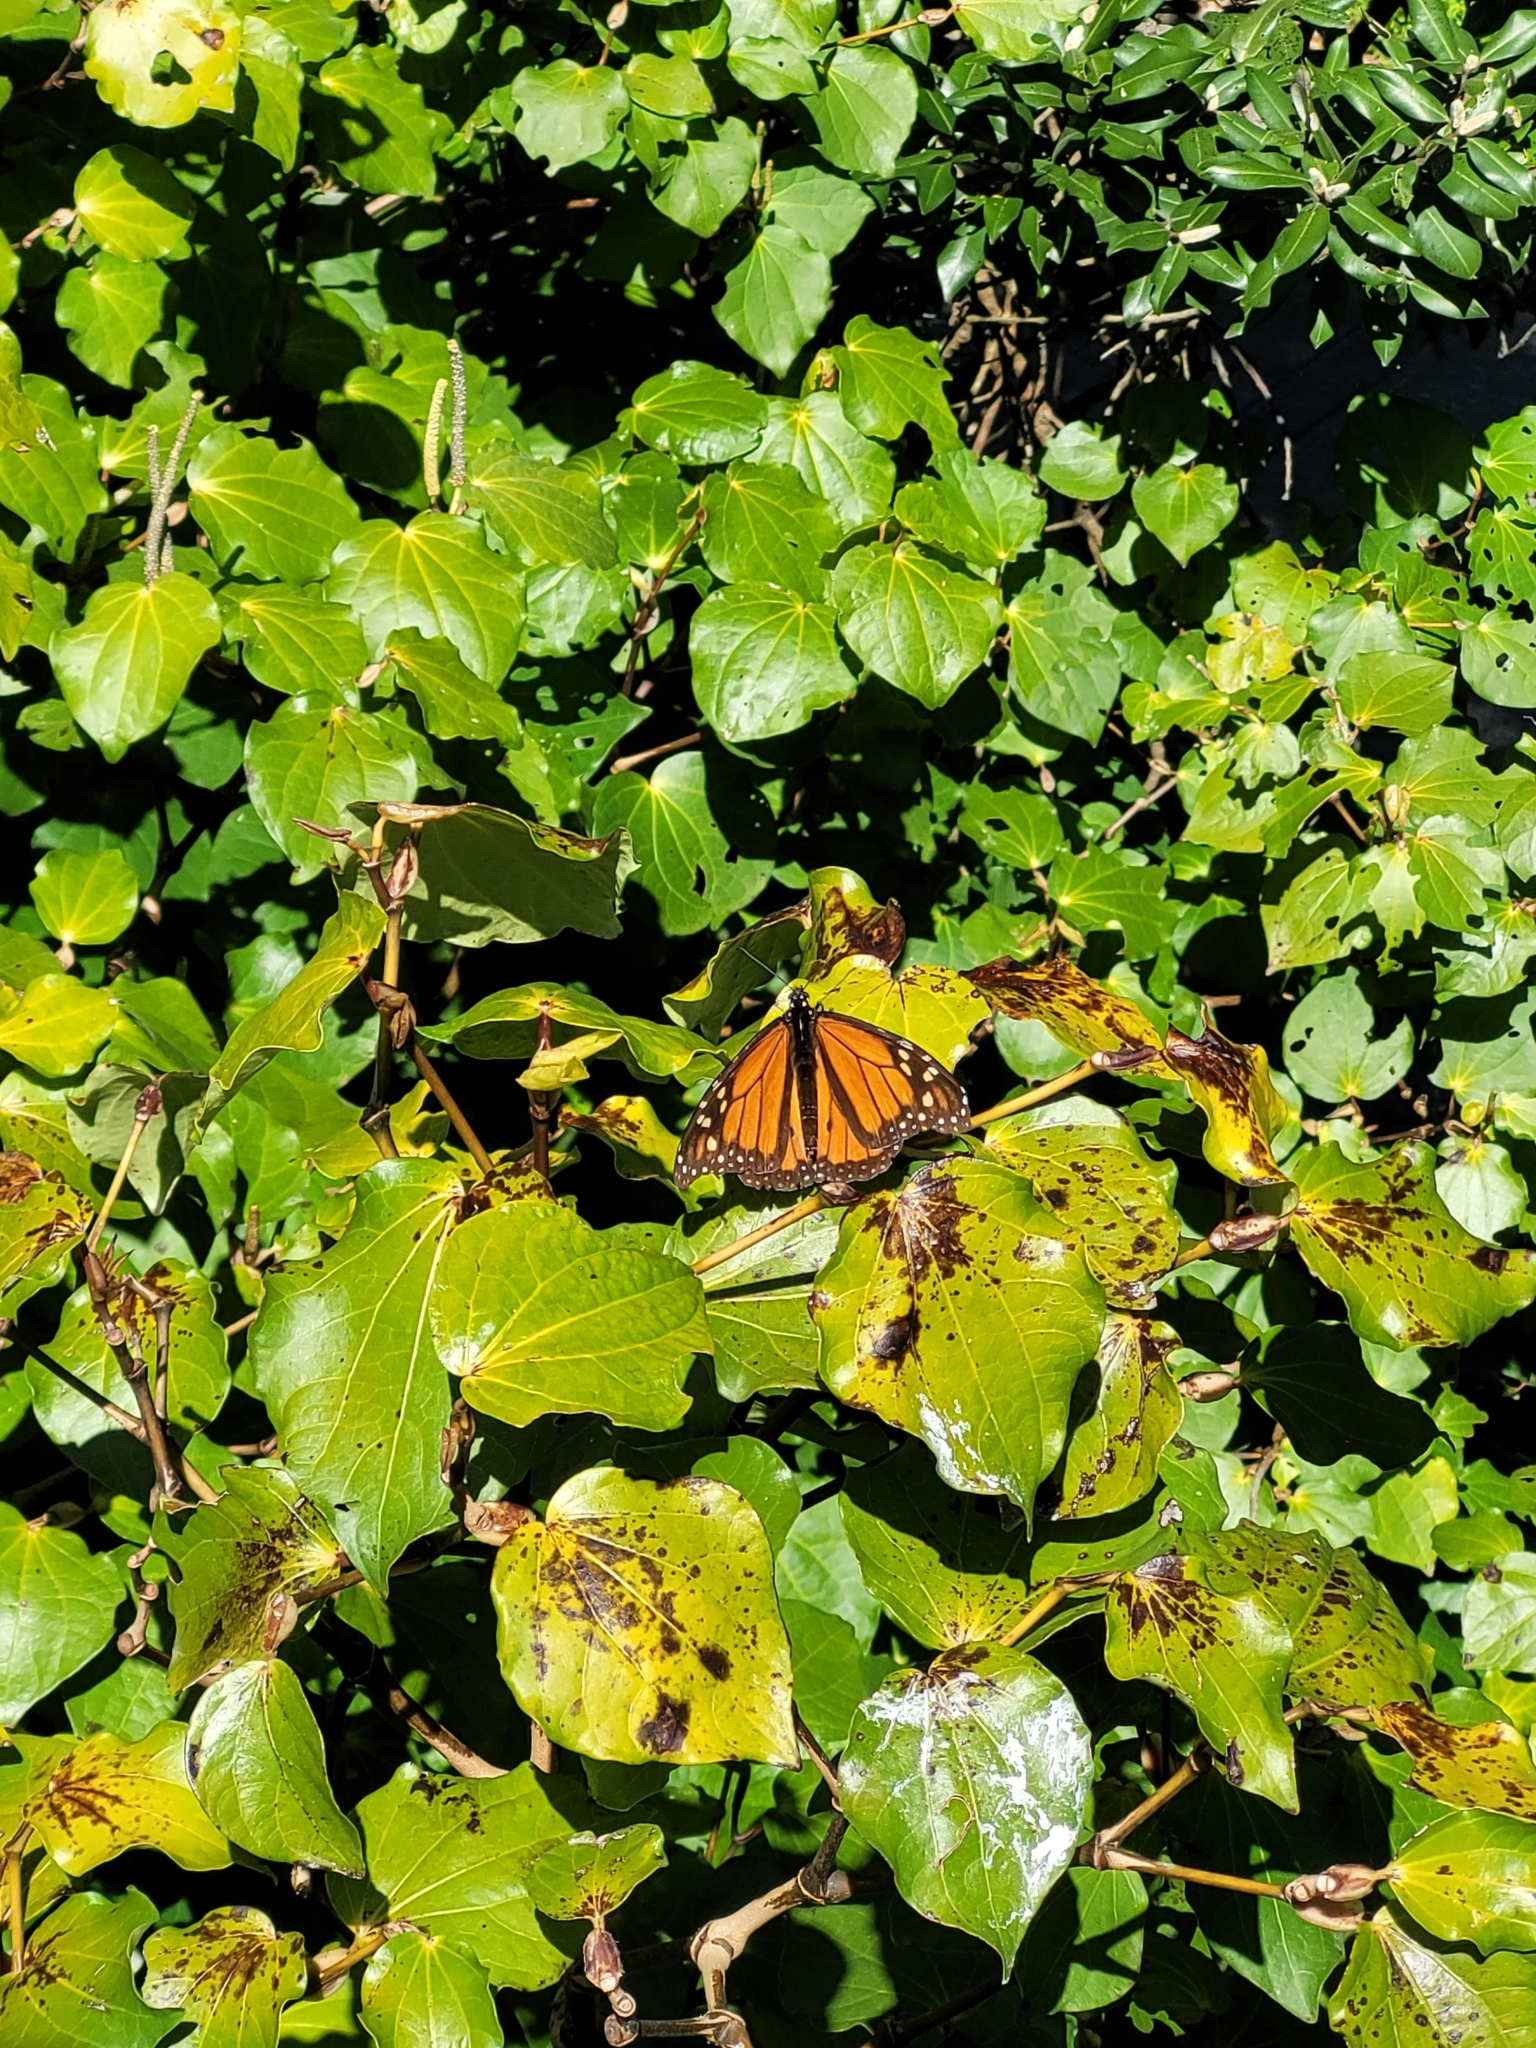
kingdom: Animalia
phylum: Arthropoda
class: Insecta
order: Lepidoptera
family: Nymphalidae
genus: Danaus
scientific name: Danaus plexippus
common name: Monarch
